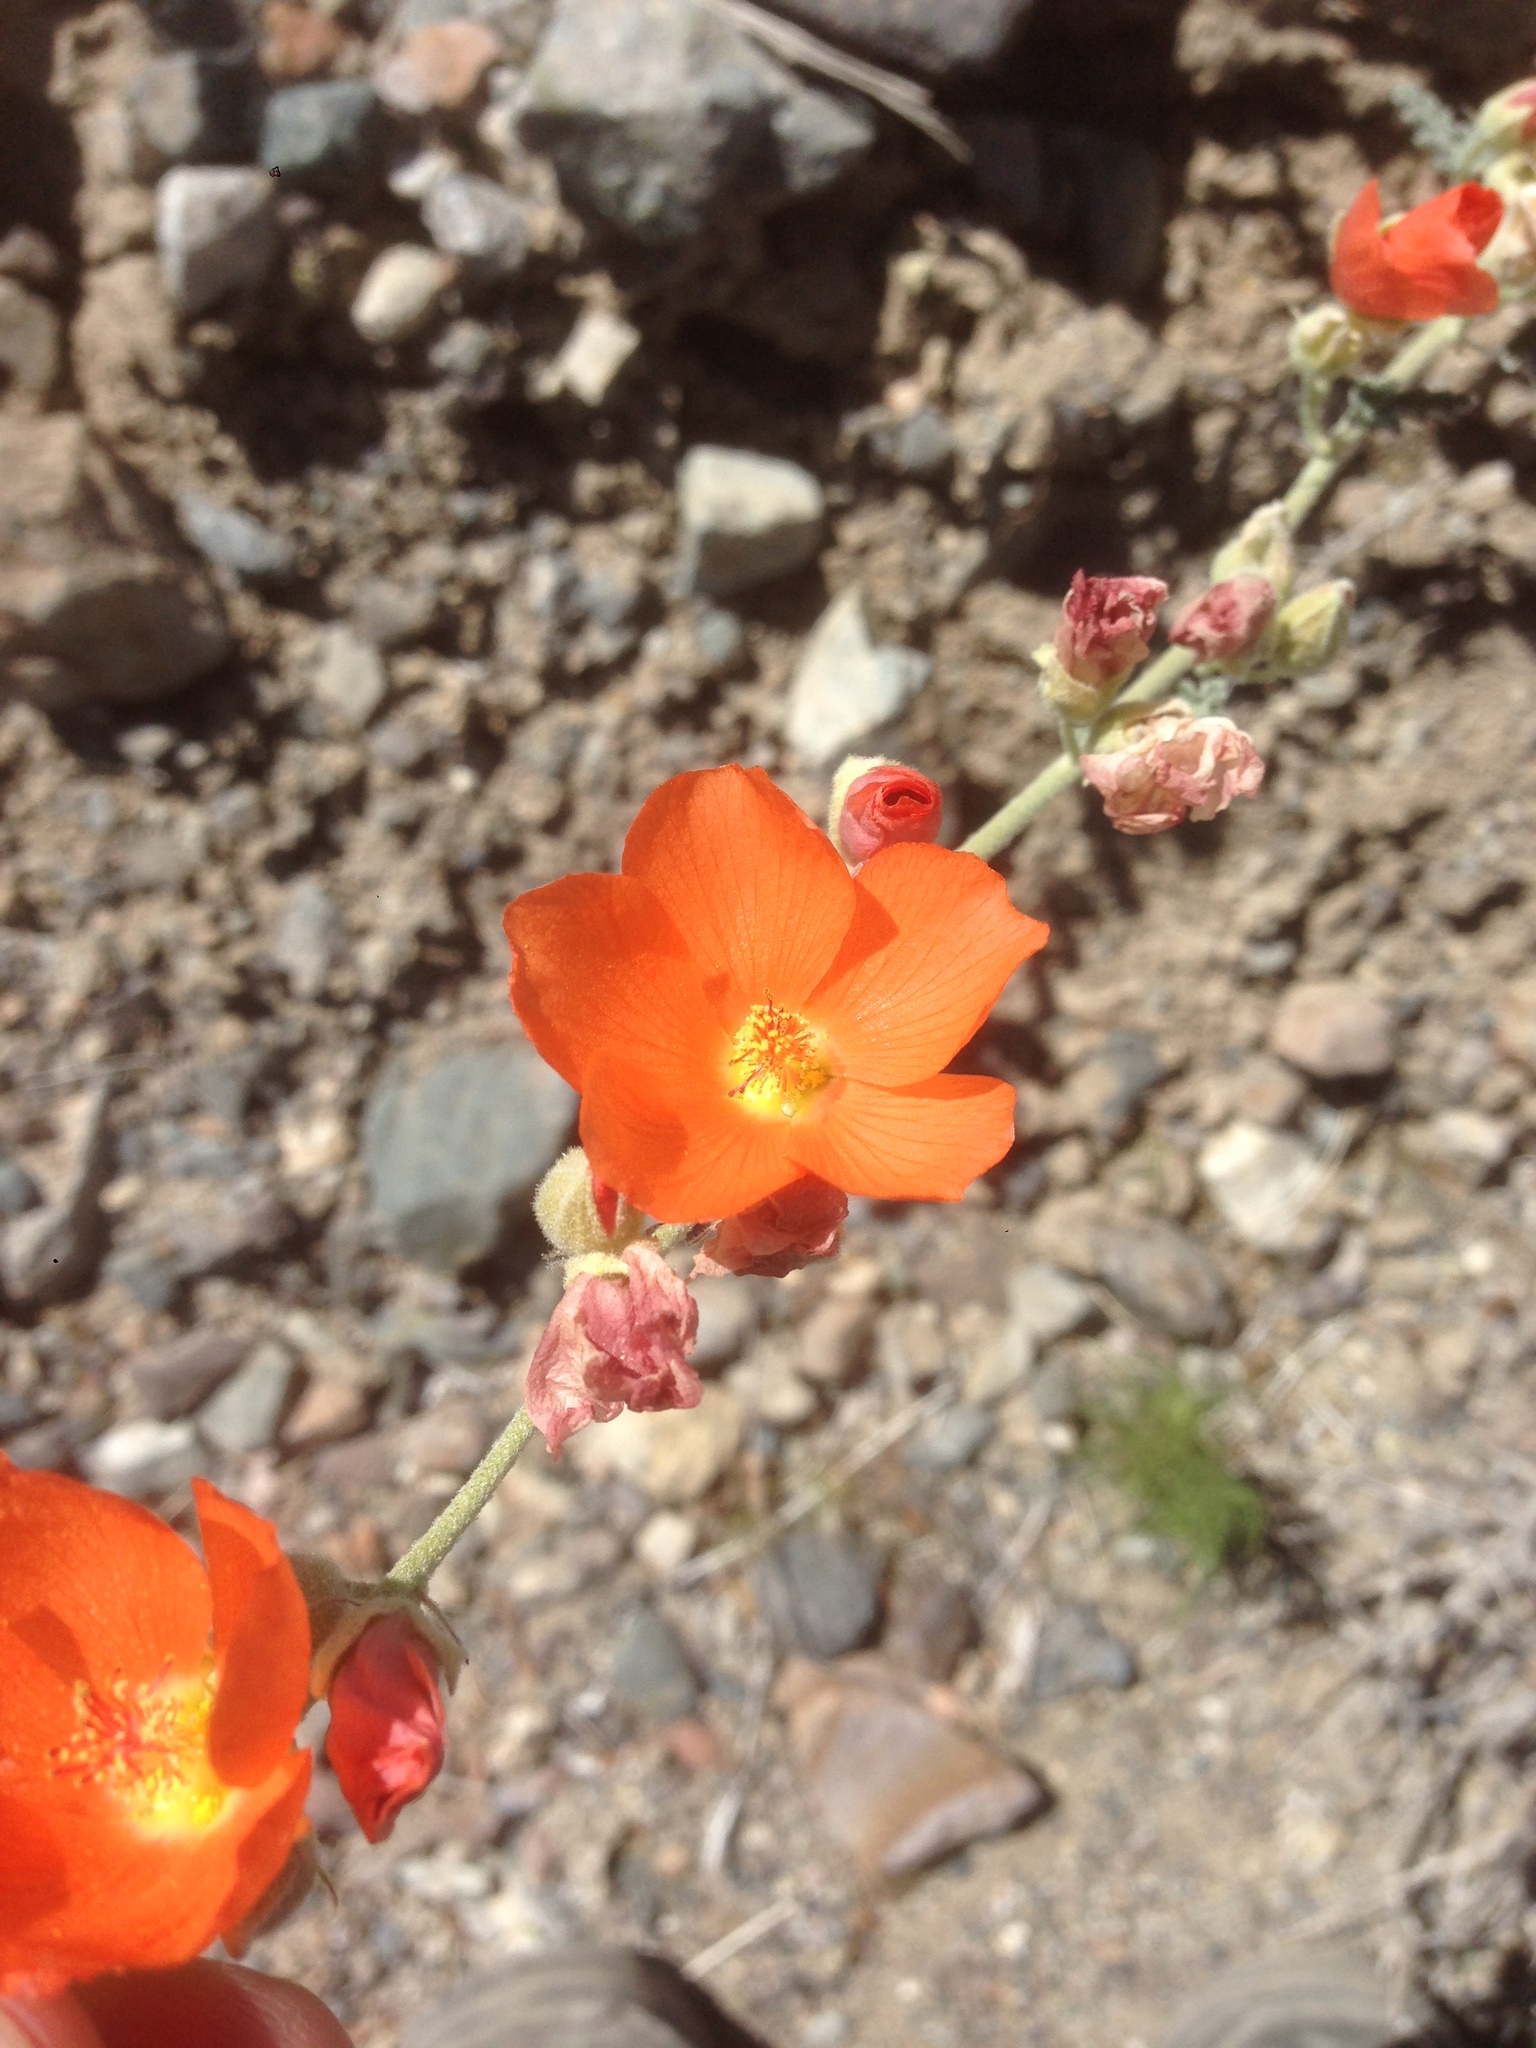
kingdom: Plantae
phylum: Tracheophyta
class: Magnoliopsida
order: Malvales
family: Malvaceae
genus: Sphaeralcea
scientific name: Sphaeralcea ambigua
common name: Apricot globe-mallow
